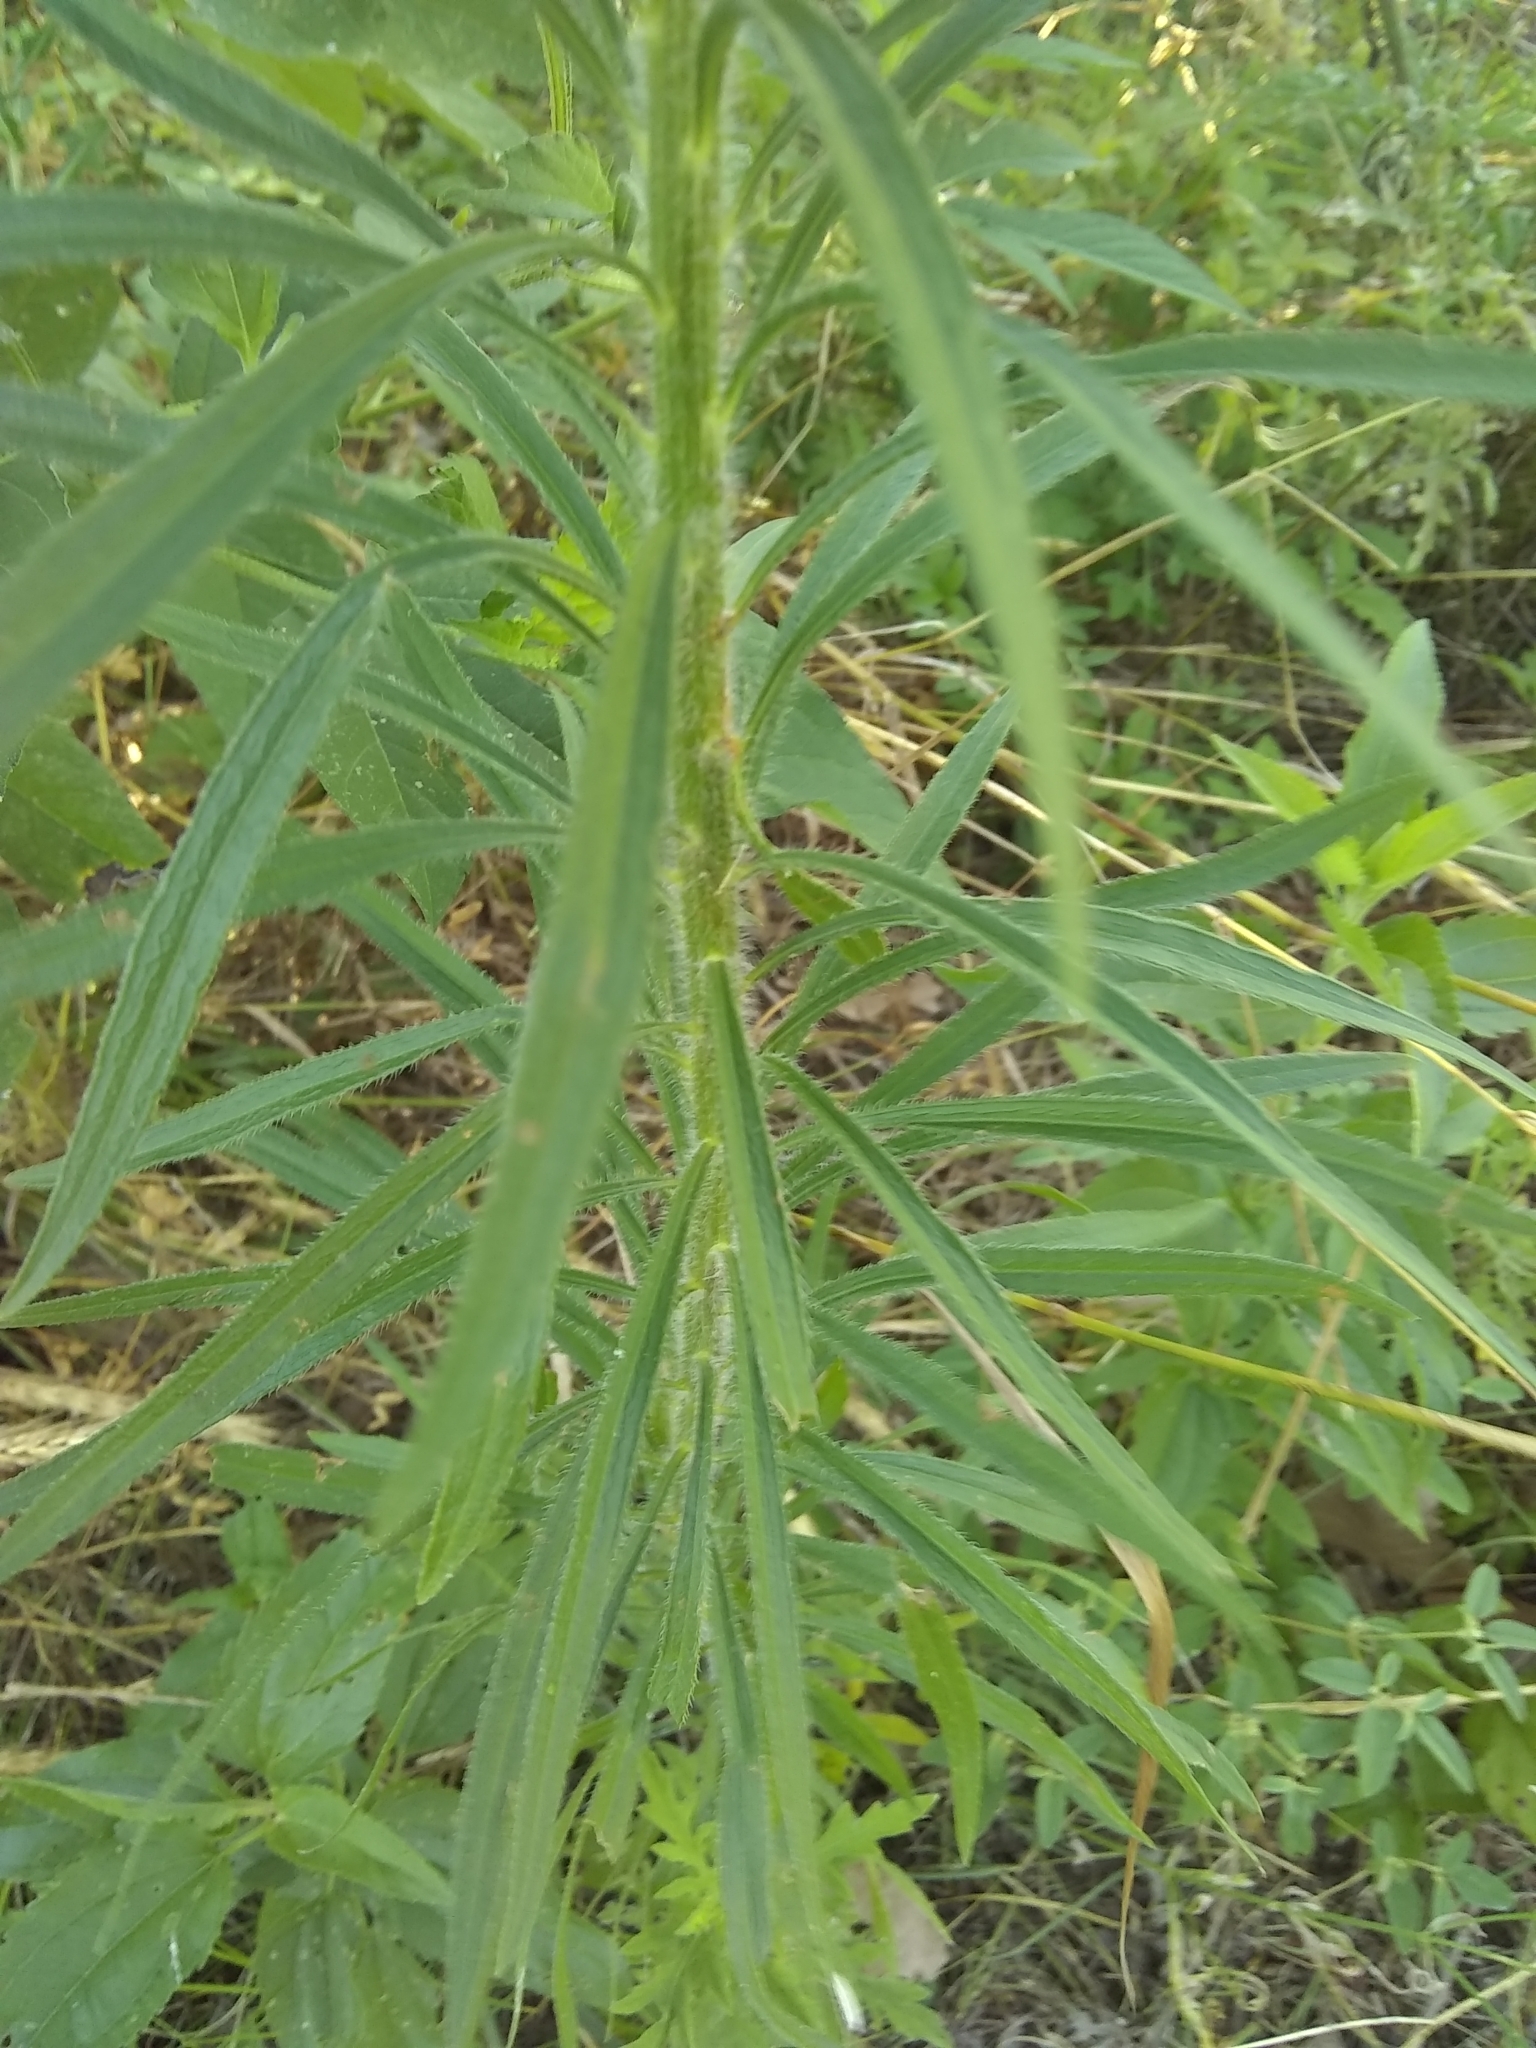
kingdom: Plantae
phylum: Tracheophyta
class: Magnoliopsida
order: Asterales
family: Asteraceae
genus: Erigeron
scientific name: Erigeron canadensis
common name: Canadian fleabane
